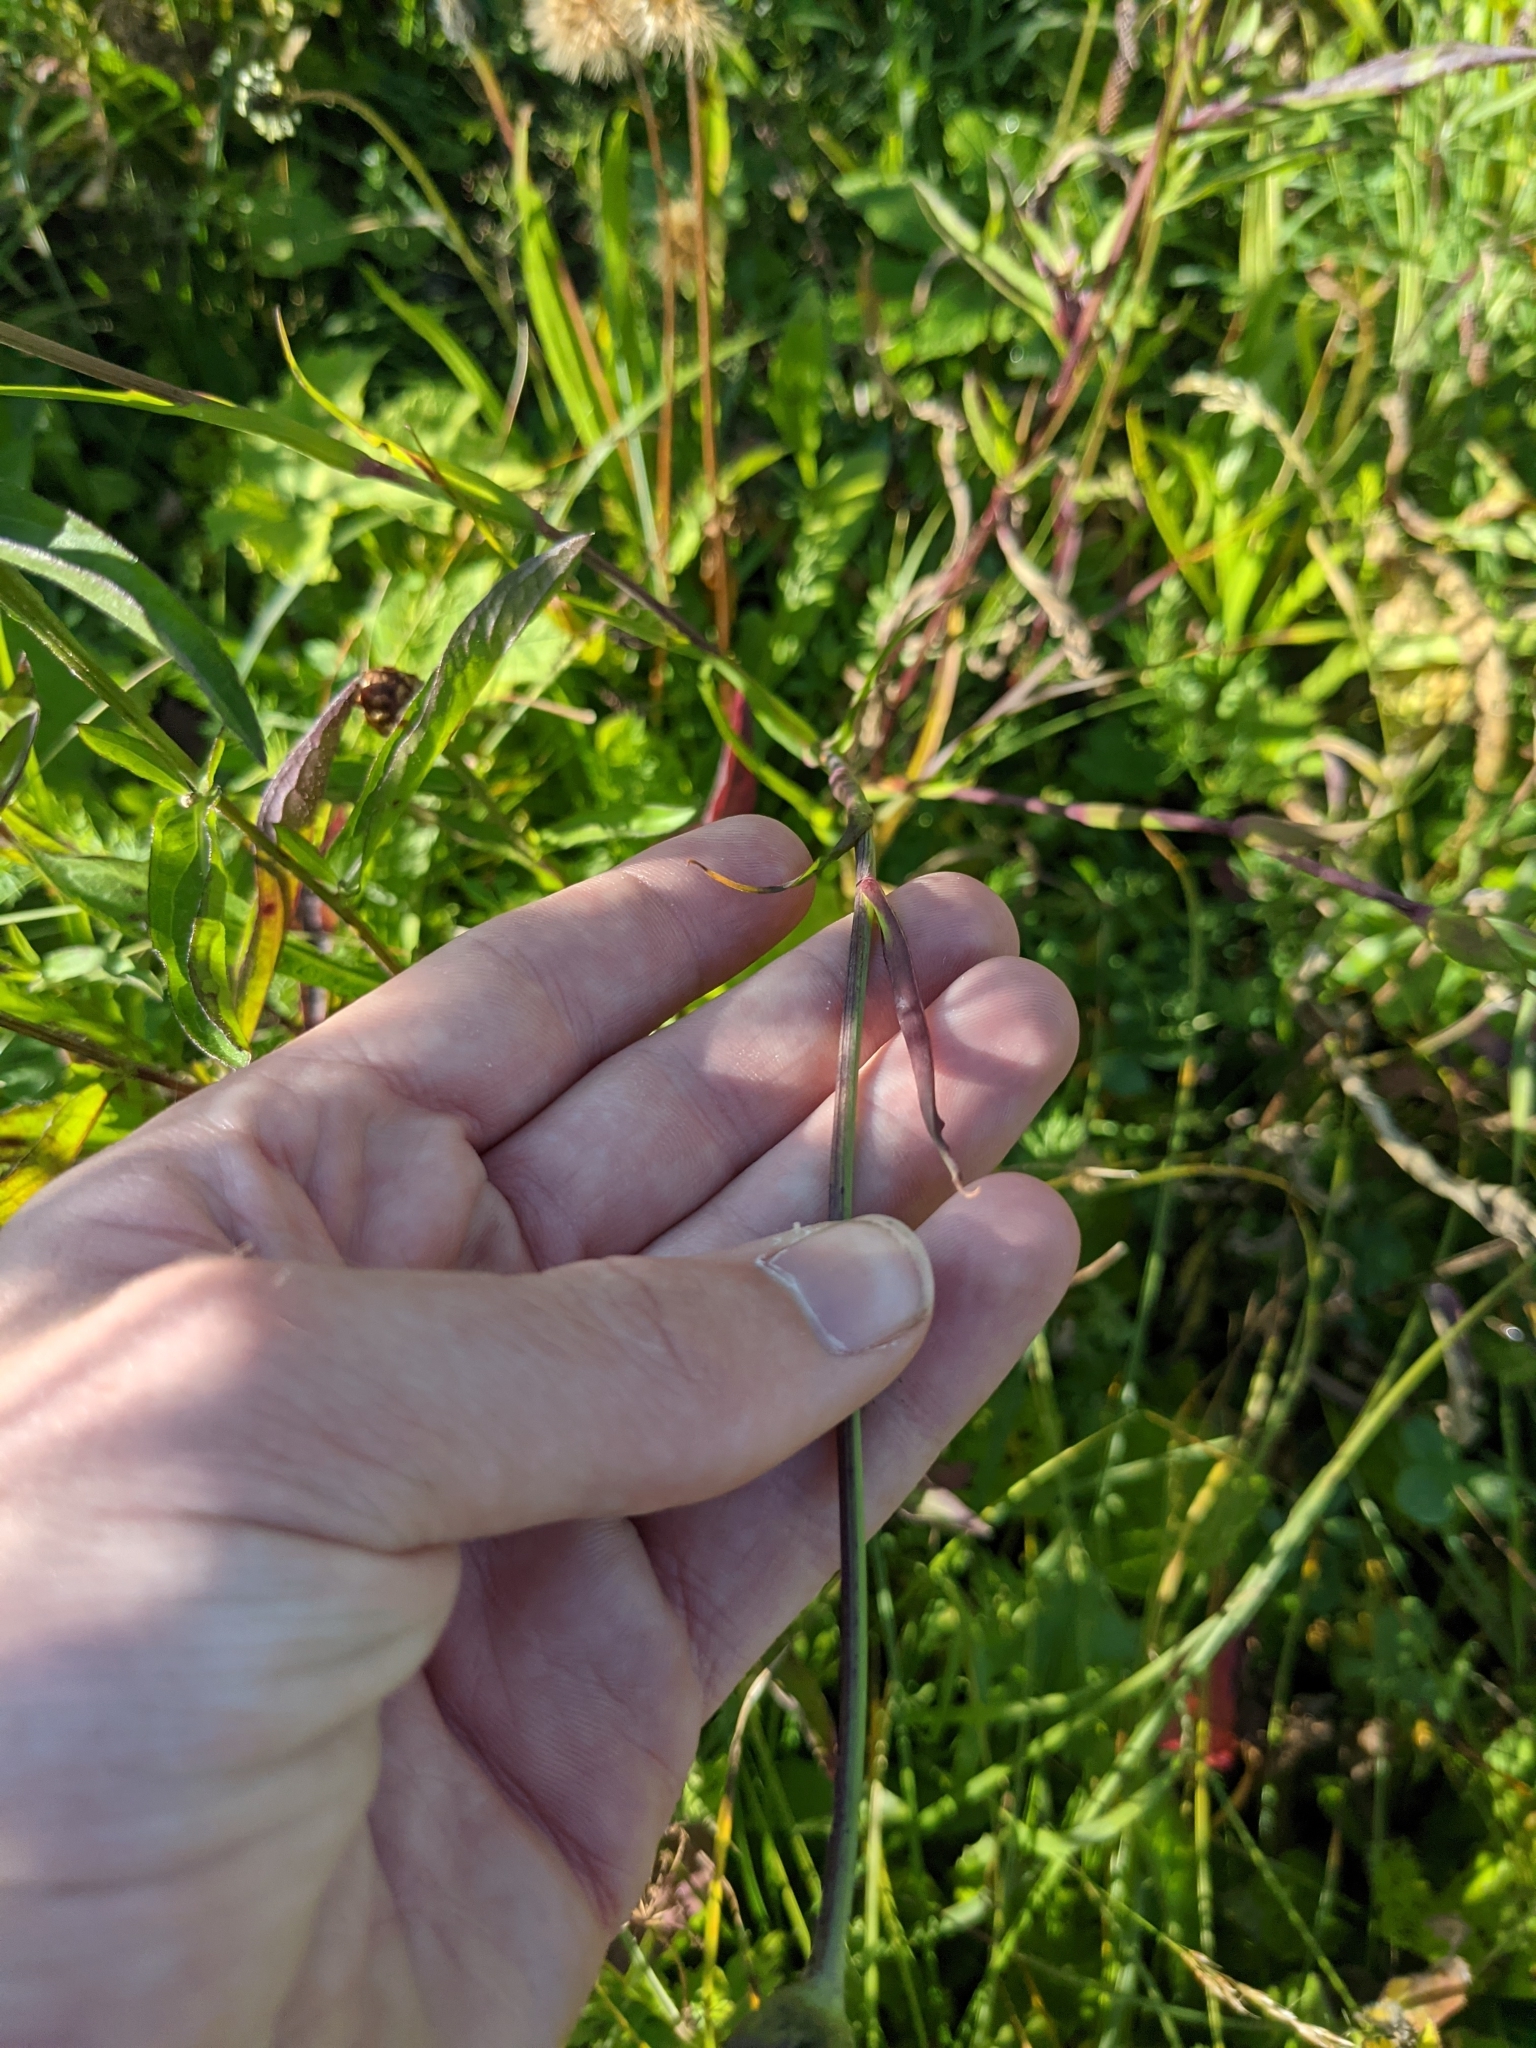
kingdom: Plantae
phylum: Tracheophyta
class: Magnoliopsida
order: Asterales
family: Asteraceae
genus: Tragopogon
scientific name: Tragopogon orientalis
